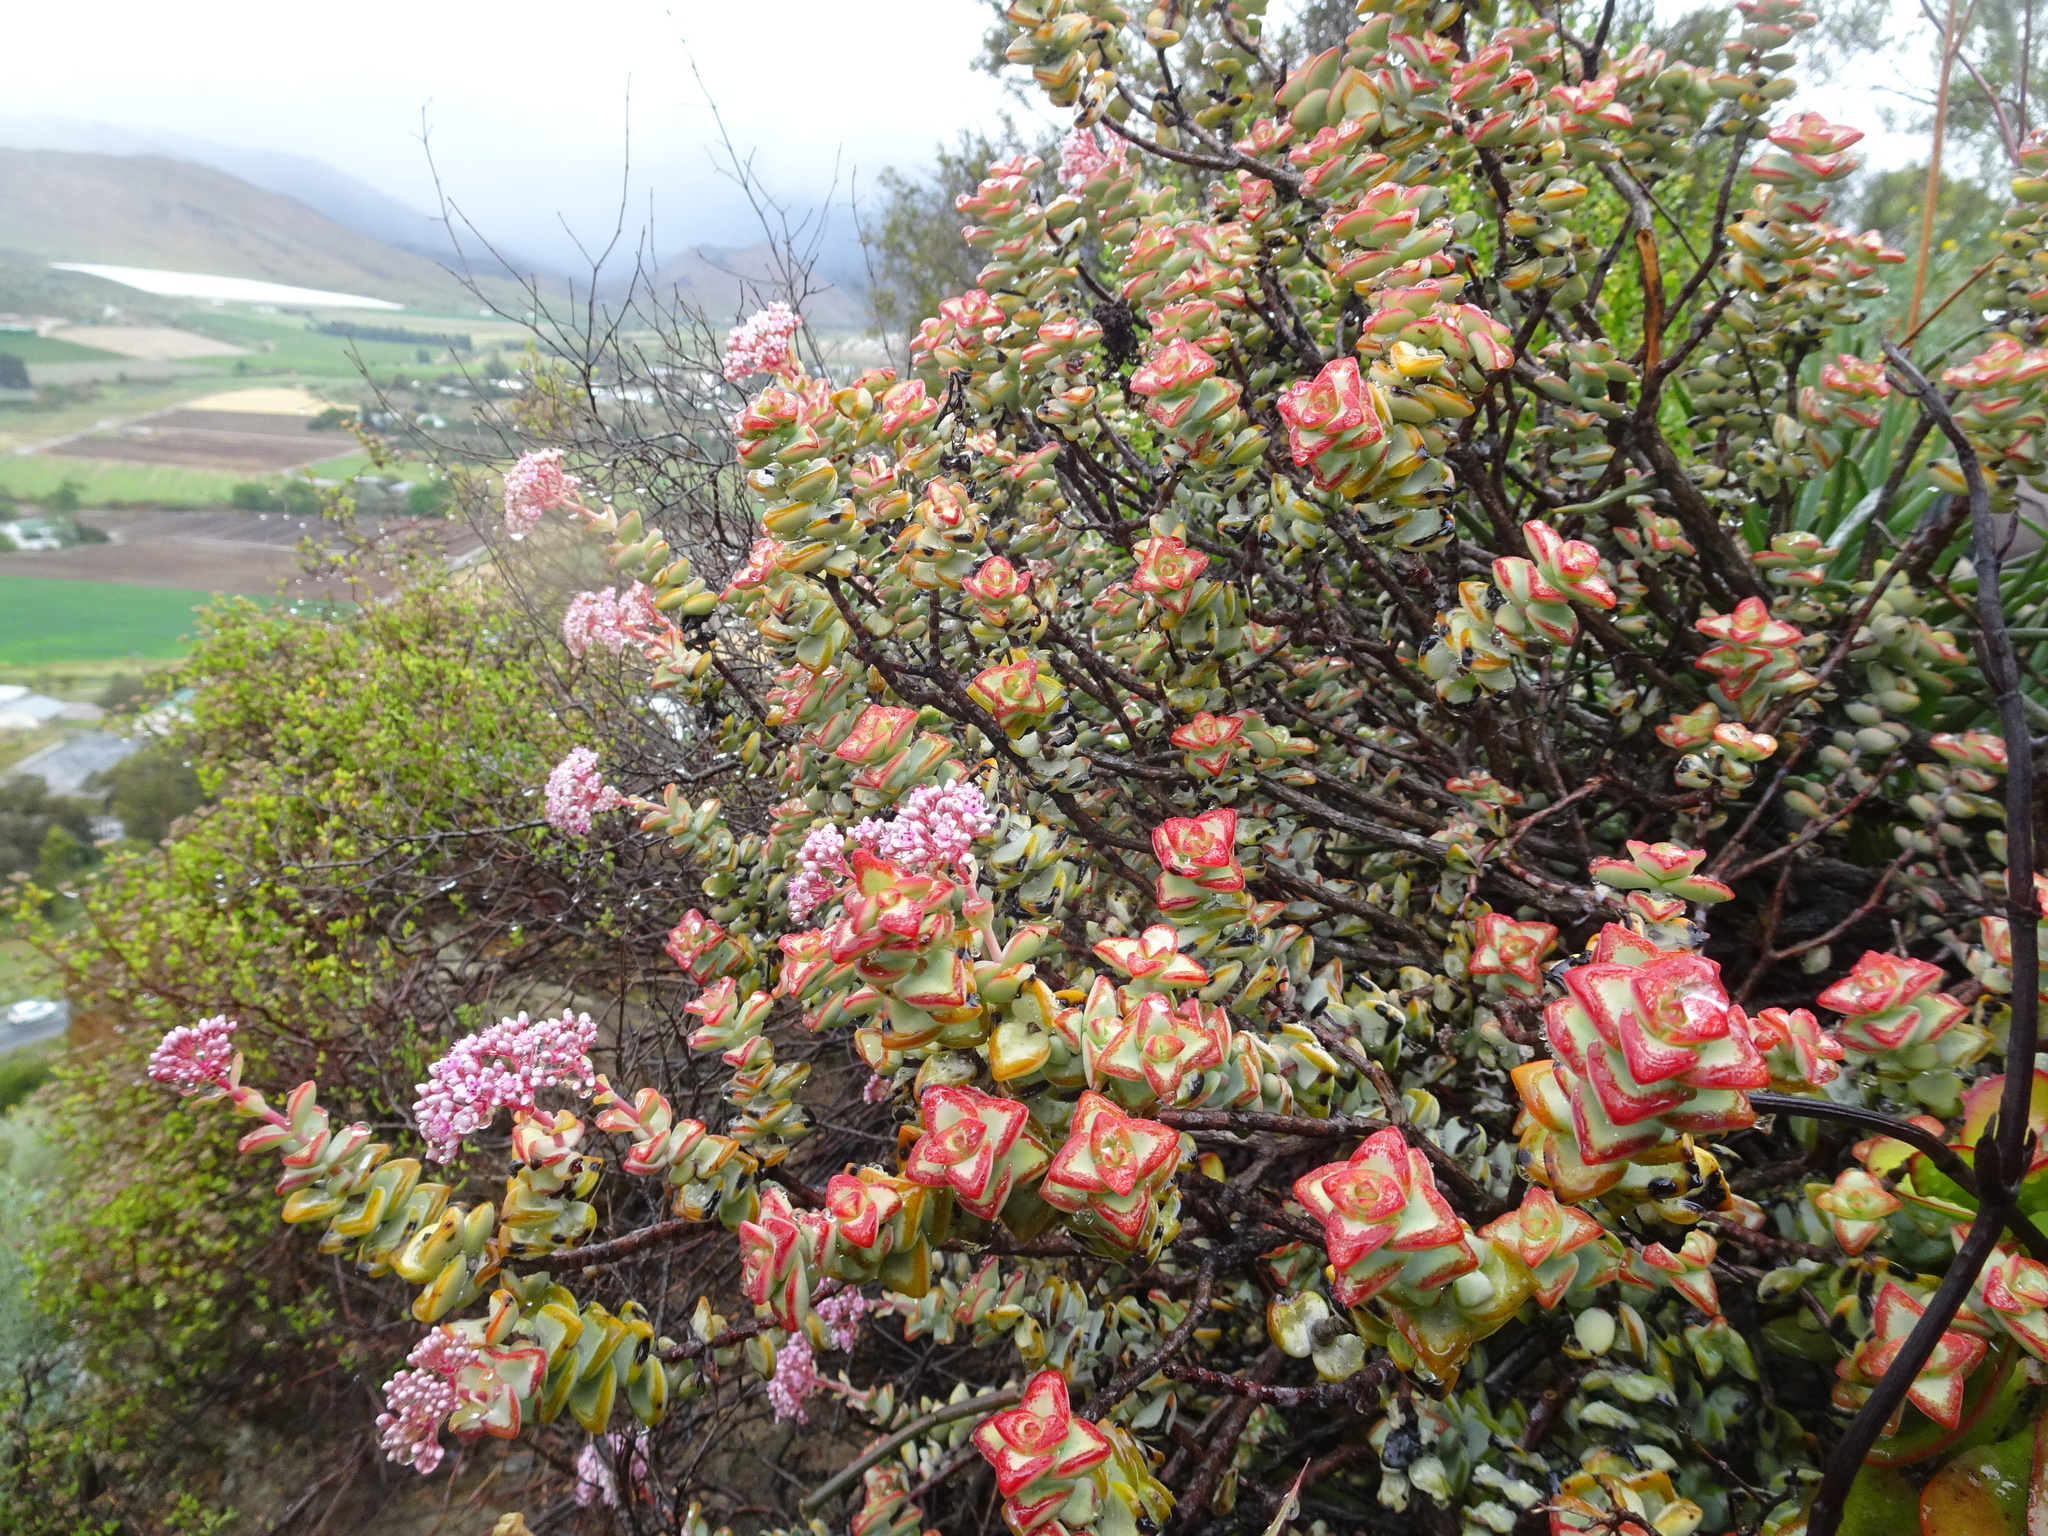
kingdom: Plantae
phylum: Tracheophyta
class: Magnoliopsida
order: Saxifragales
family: Crassulaceae
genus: Crassula
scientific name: Crassula rupestris
